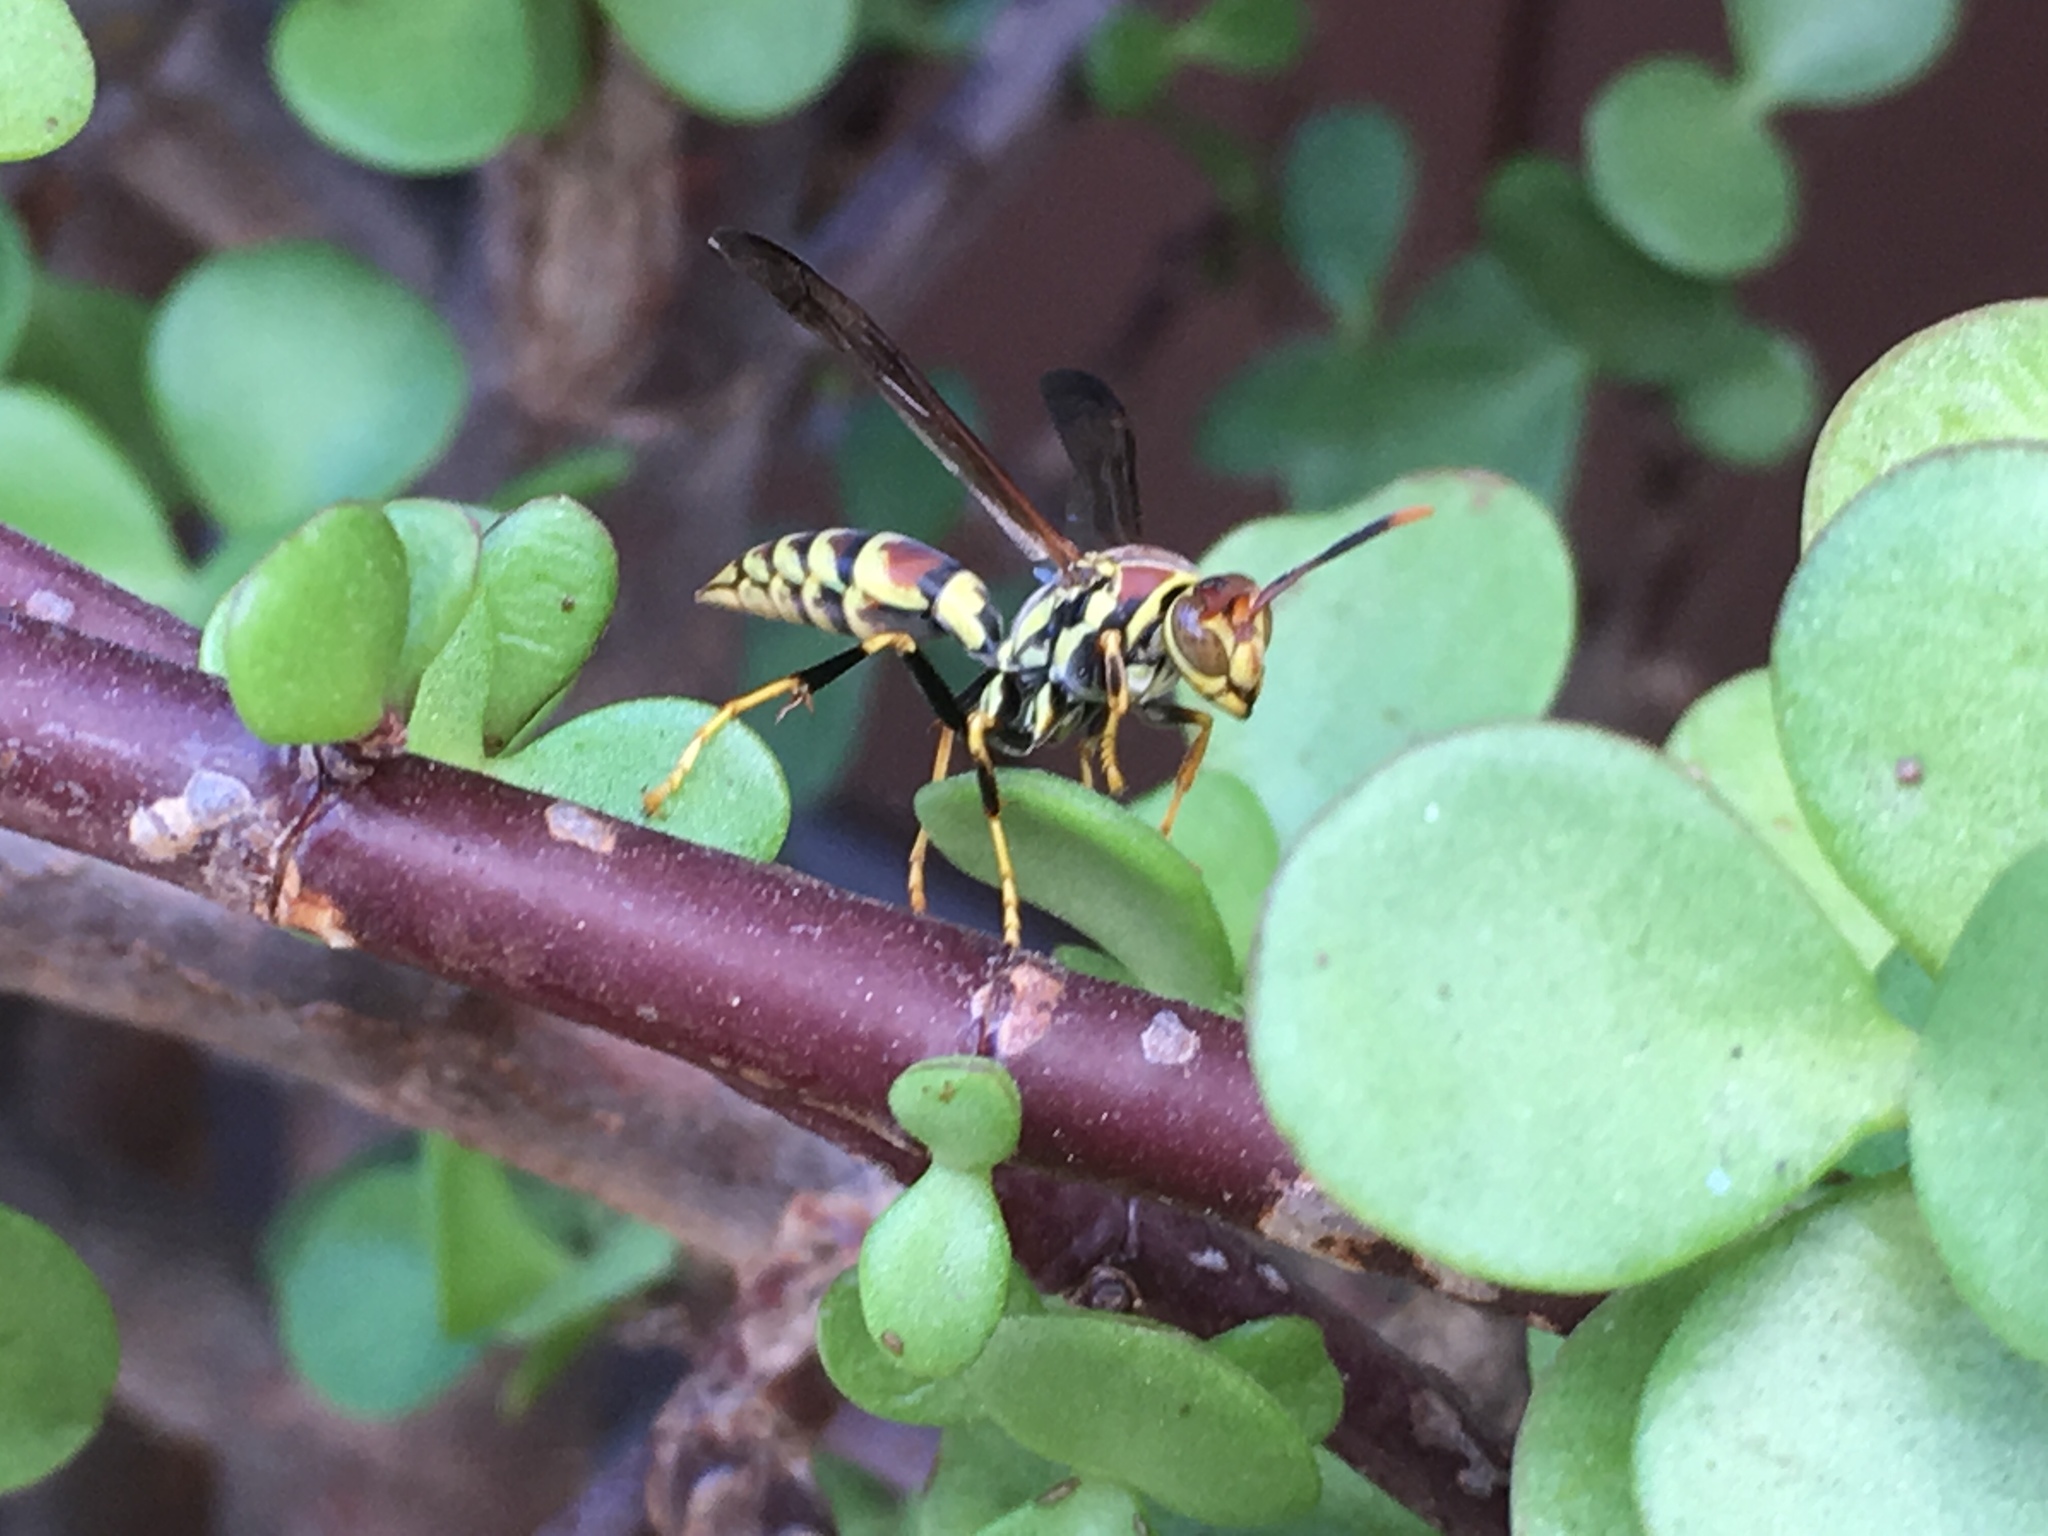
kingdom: Animalia
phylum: Arthropoda
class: Insecta
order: Hymenoptera
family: Eumenidae
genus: Polistes
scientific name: Polistes exclamans
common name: Paper wasp
